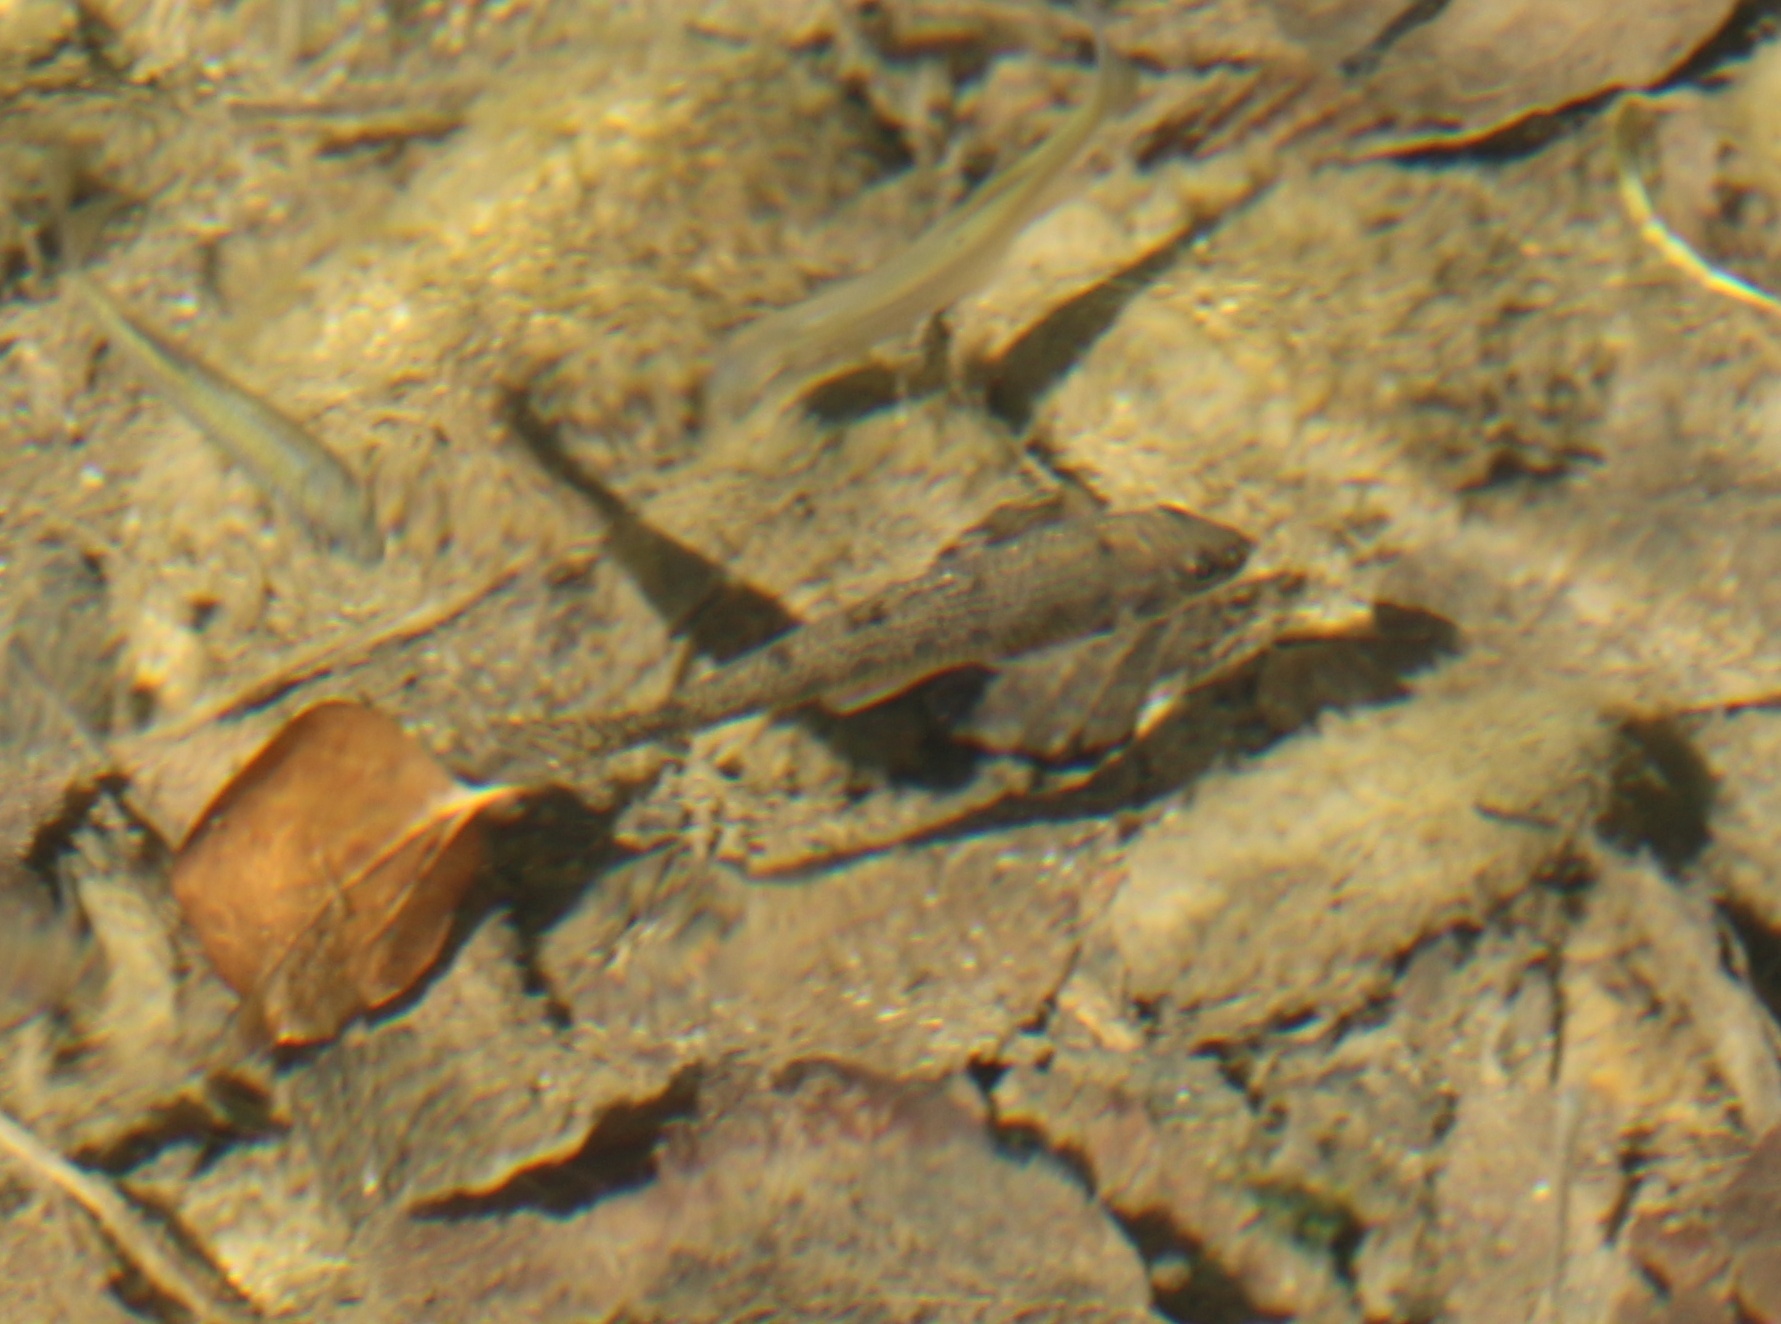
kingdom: Animalia
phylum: Chordata
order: Cypriniformes
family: Cyprinidae
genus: Gobio
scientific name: Gobio caucasicus
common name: Colchic gudgeon
